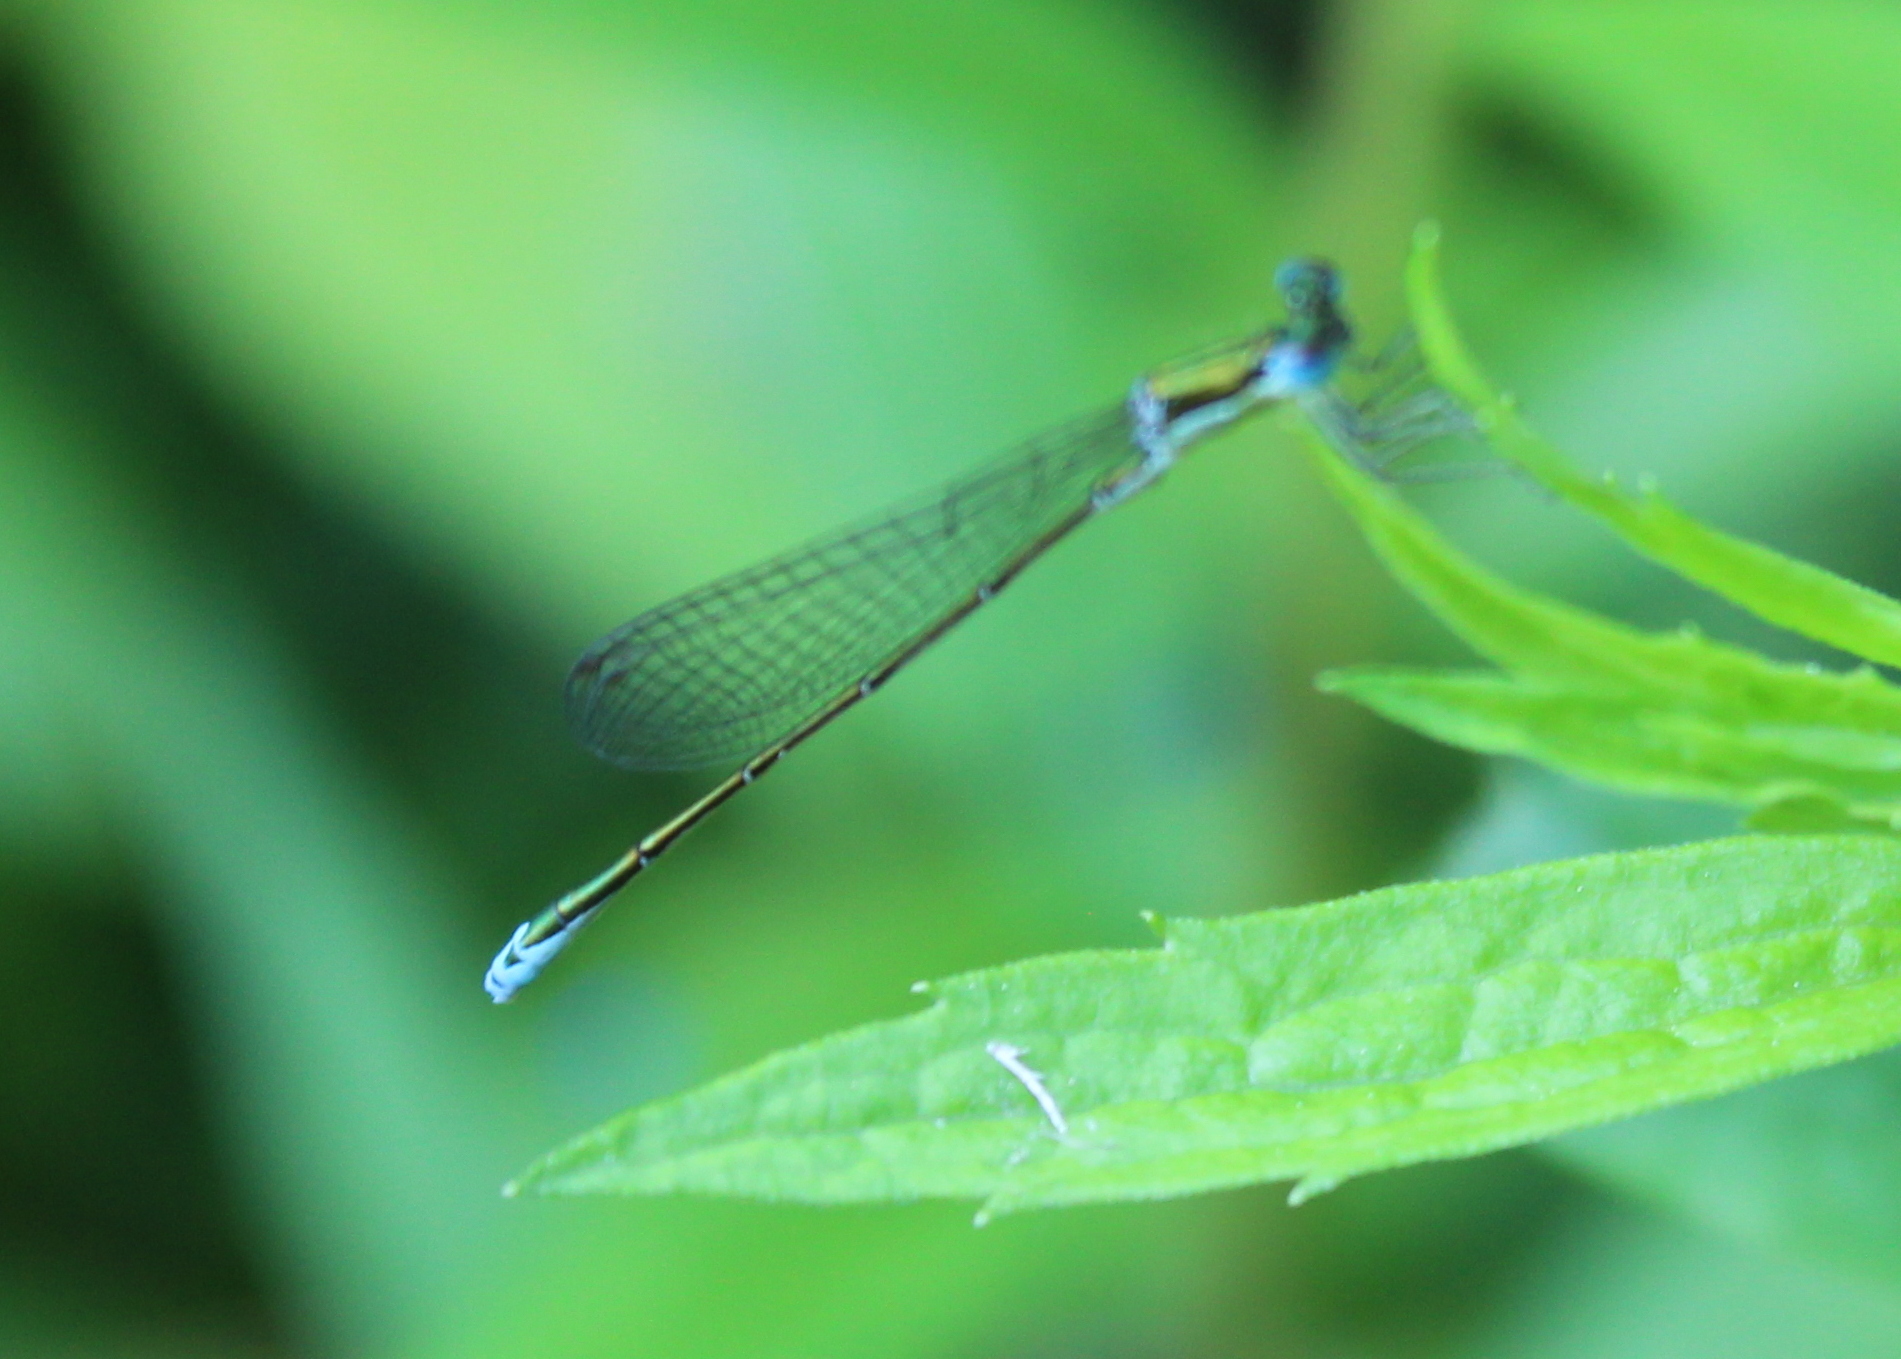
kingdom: Animalia
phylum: Arthropoda
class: Insecta
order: Odonata
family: Coenagrionidae
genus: Nehalennia
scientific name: Nehalennia irene
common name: Sedge sprite
